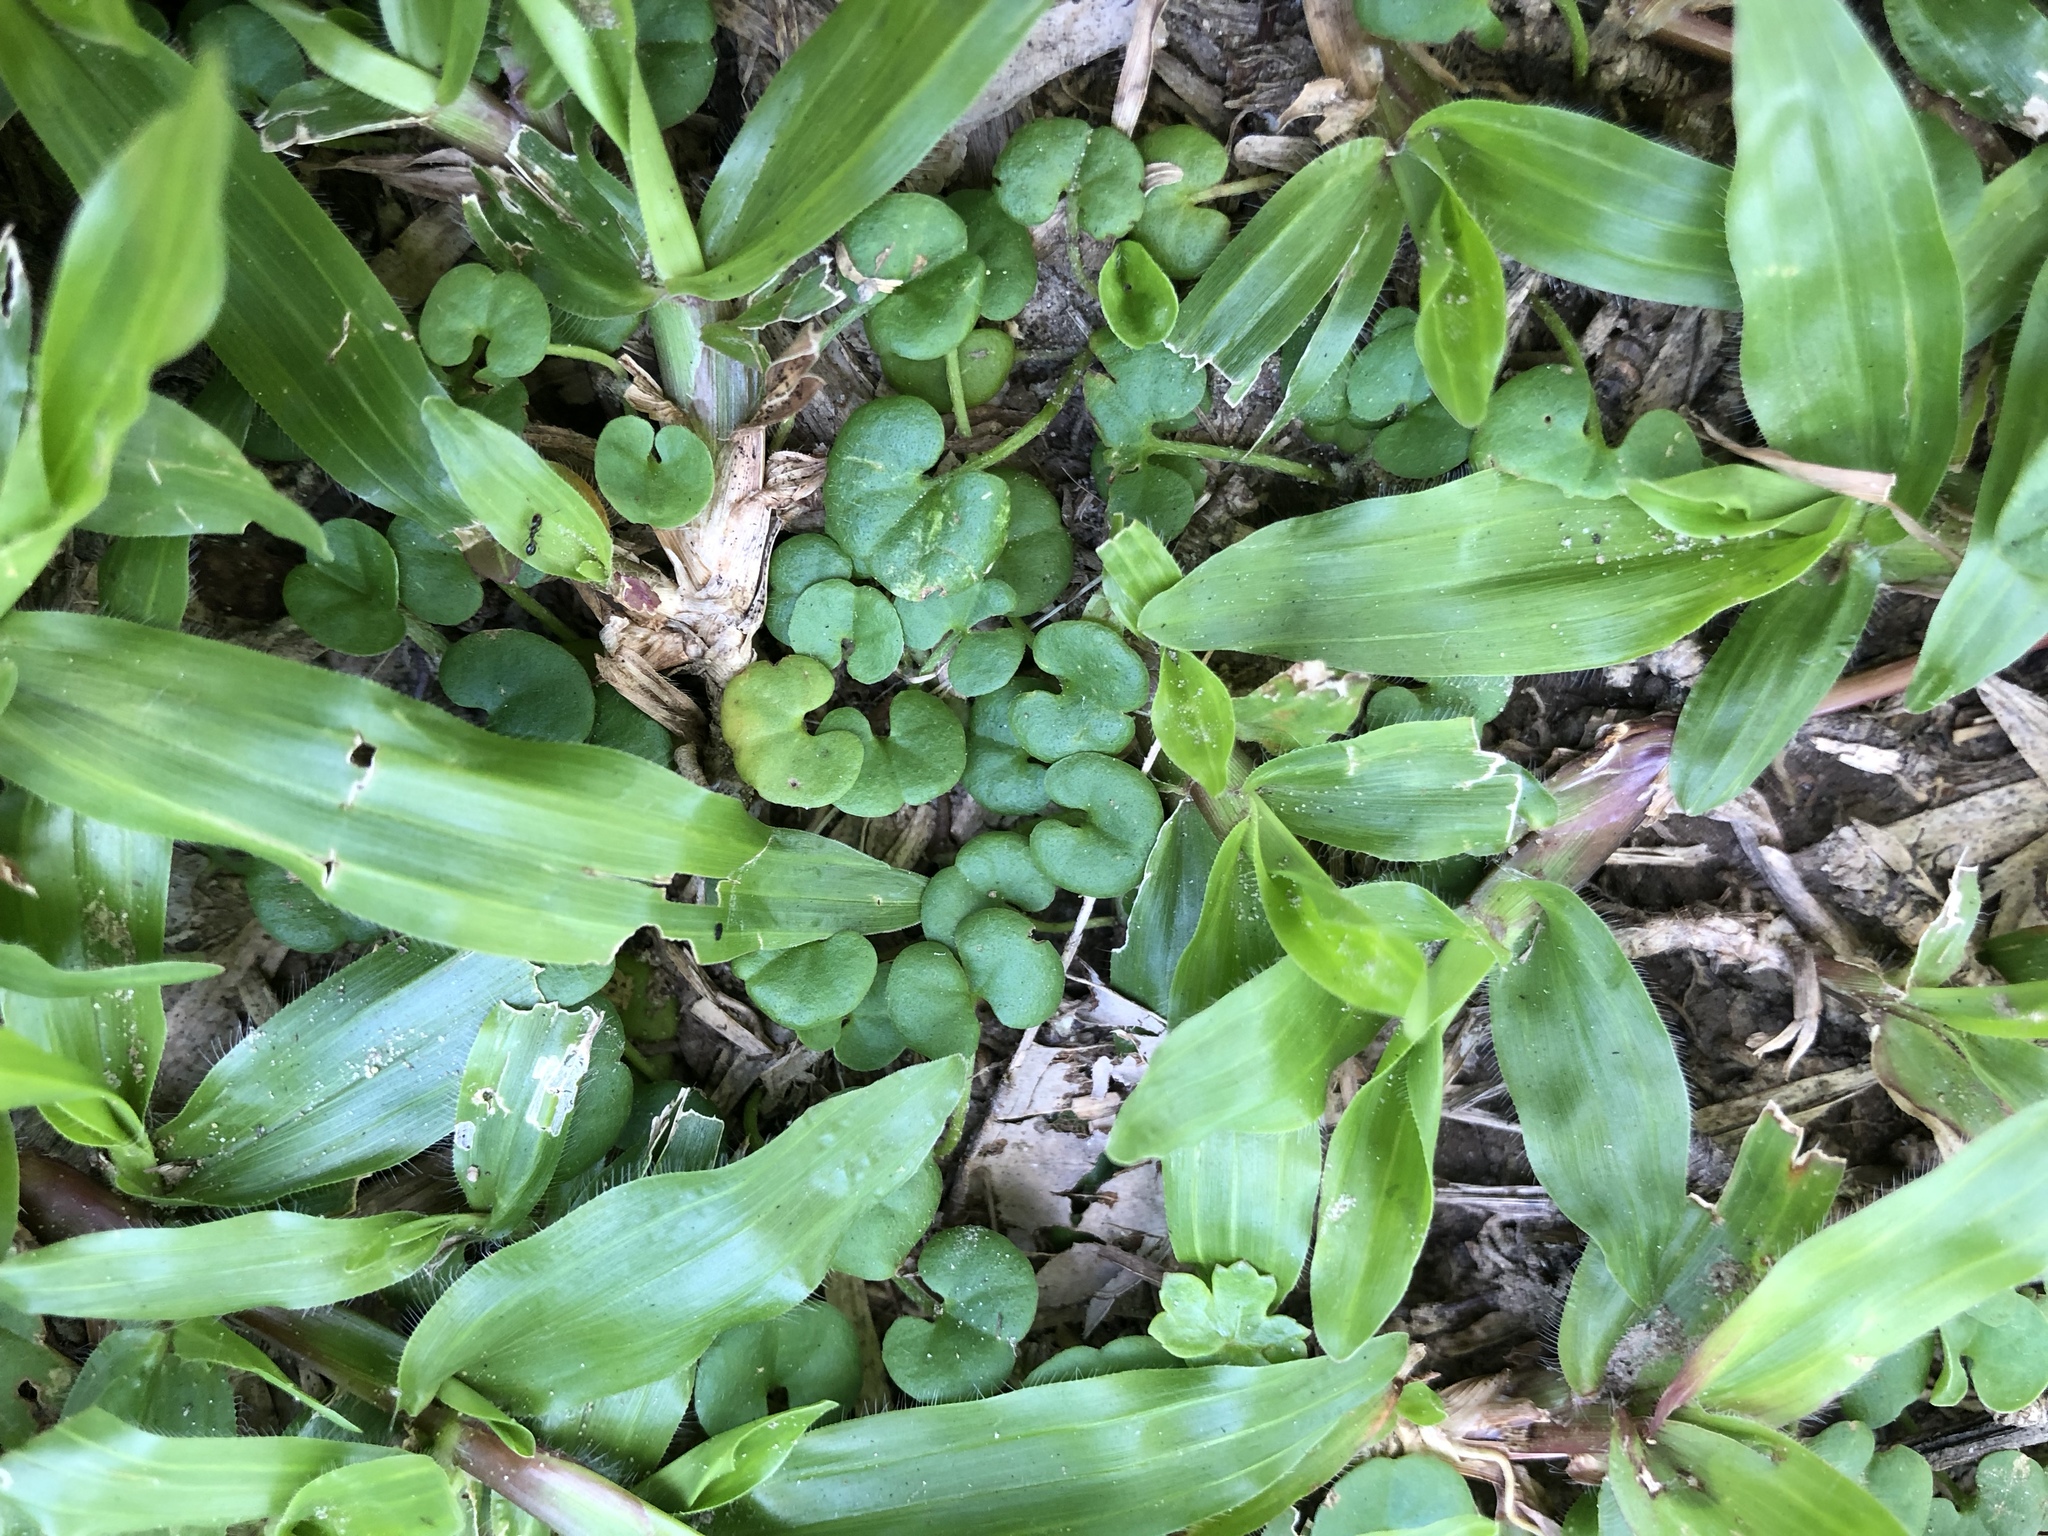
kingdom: Plantae
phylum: Tracheophyta
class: Magnoliopsida
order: Solanales
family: Convolvulaceae
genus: Dichondra
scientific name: Dichondra micrantha
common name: Kidneyweed
